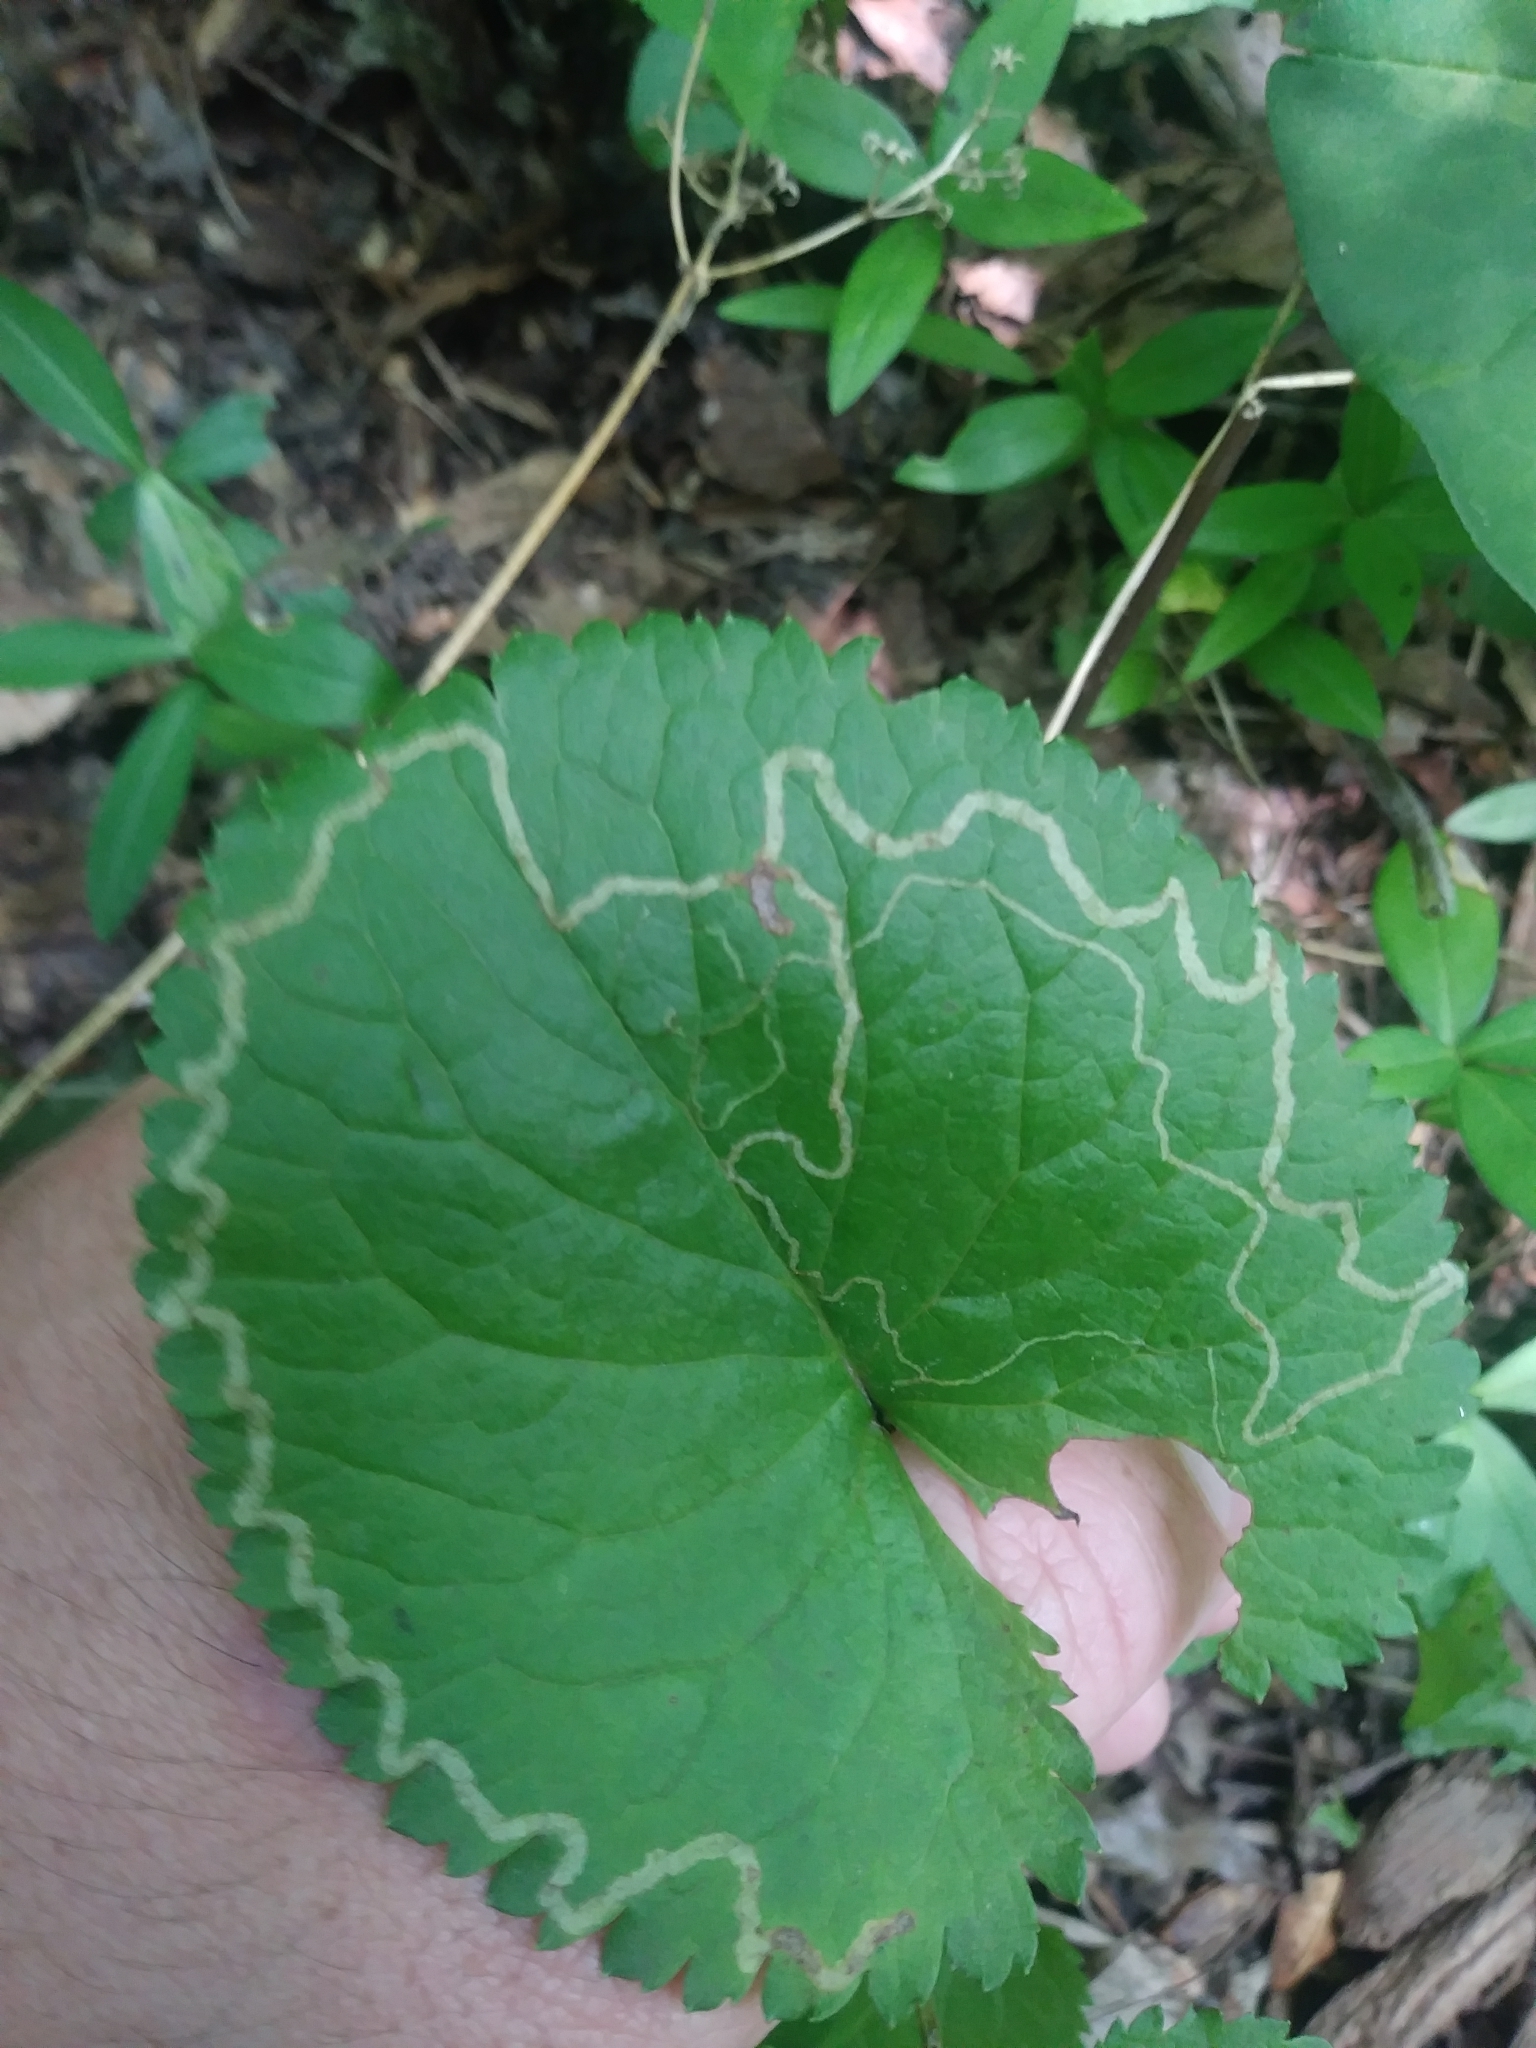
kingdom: Animalia
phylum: Arthropoda
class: Insecta
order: Lepidoptera
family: Gracillariidae
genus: Phyllocnistis
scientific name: Phyllocnistis insignis
